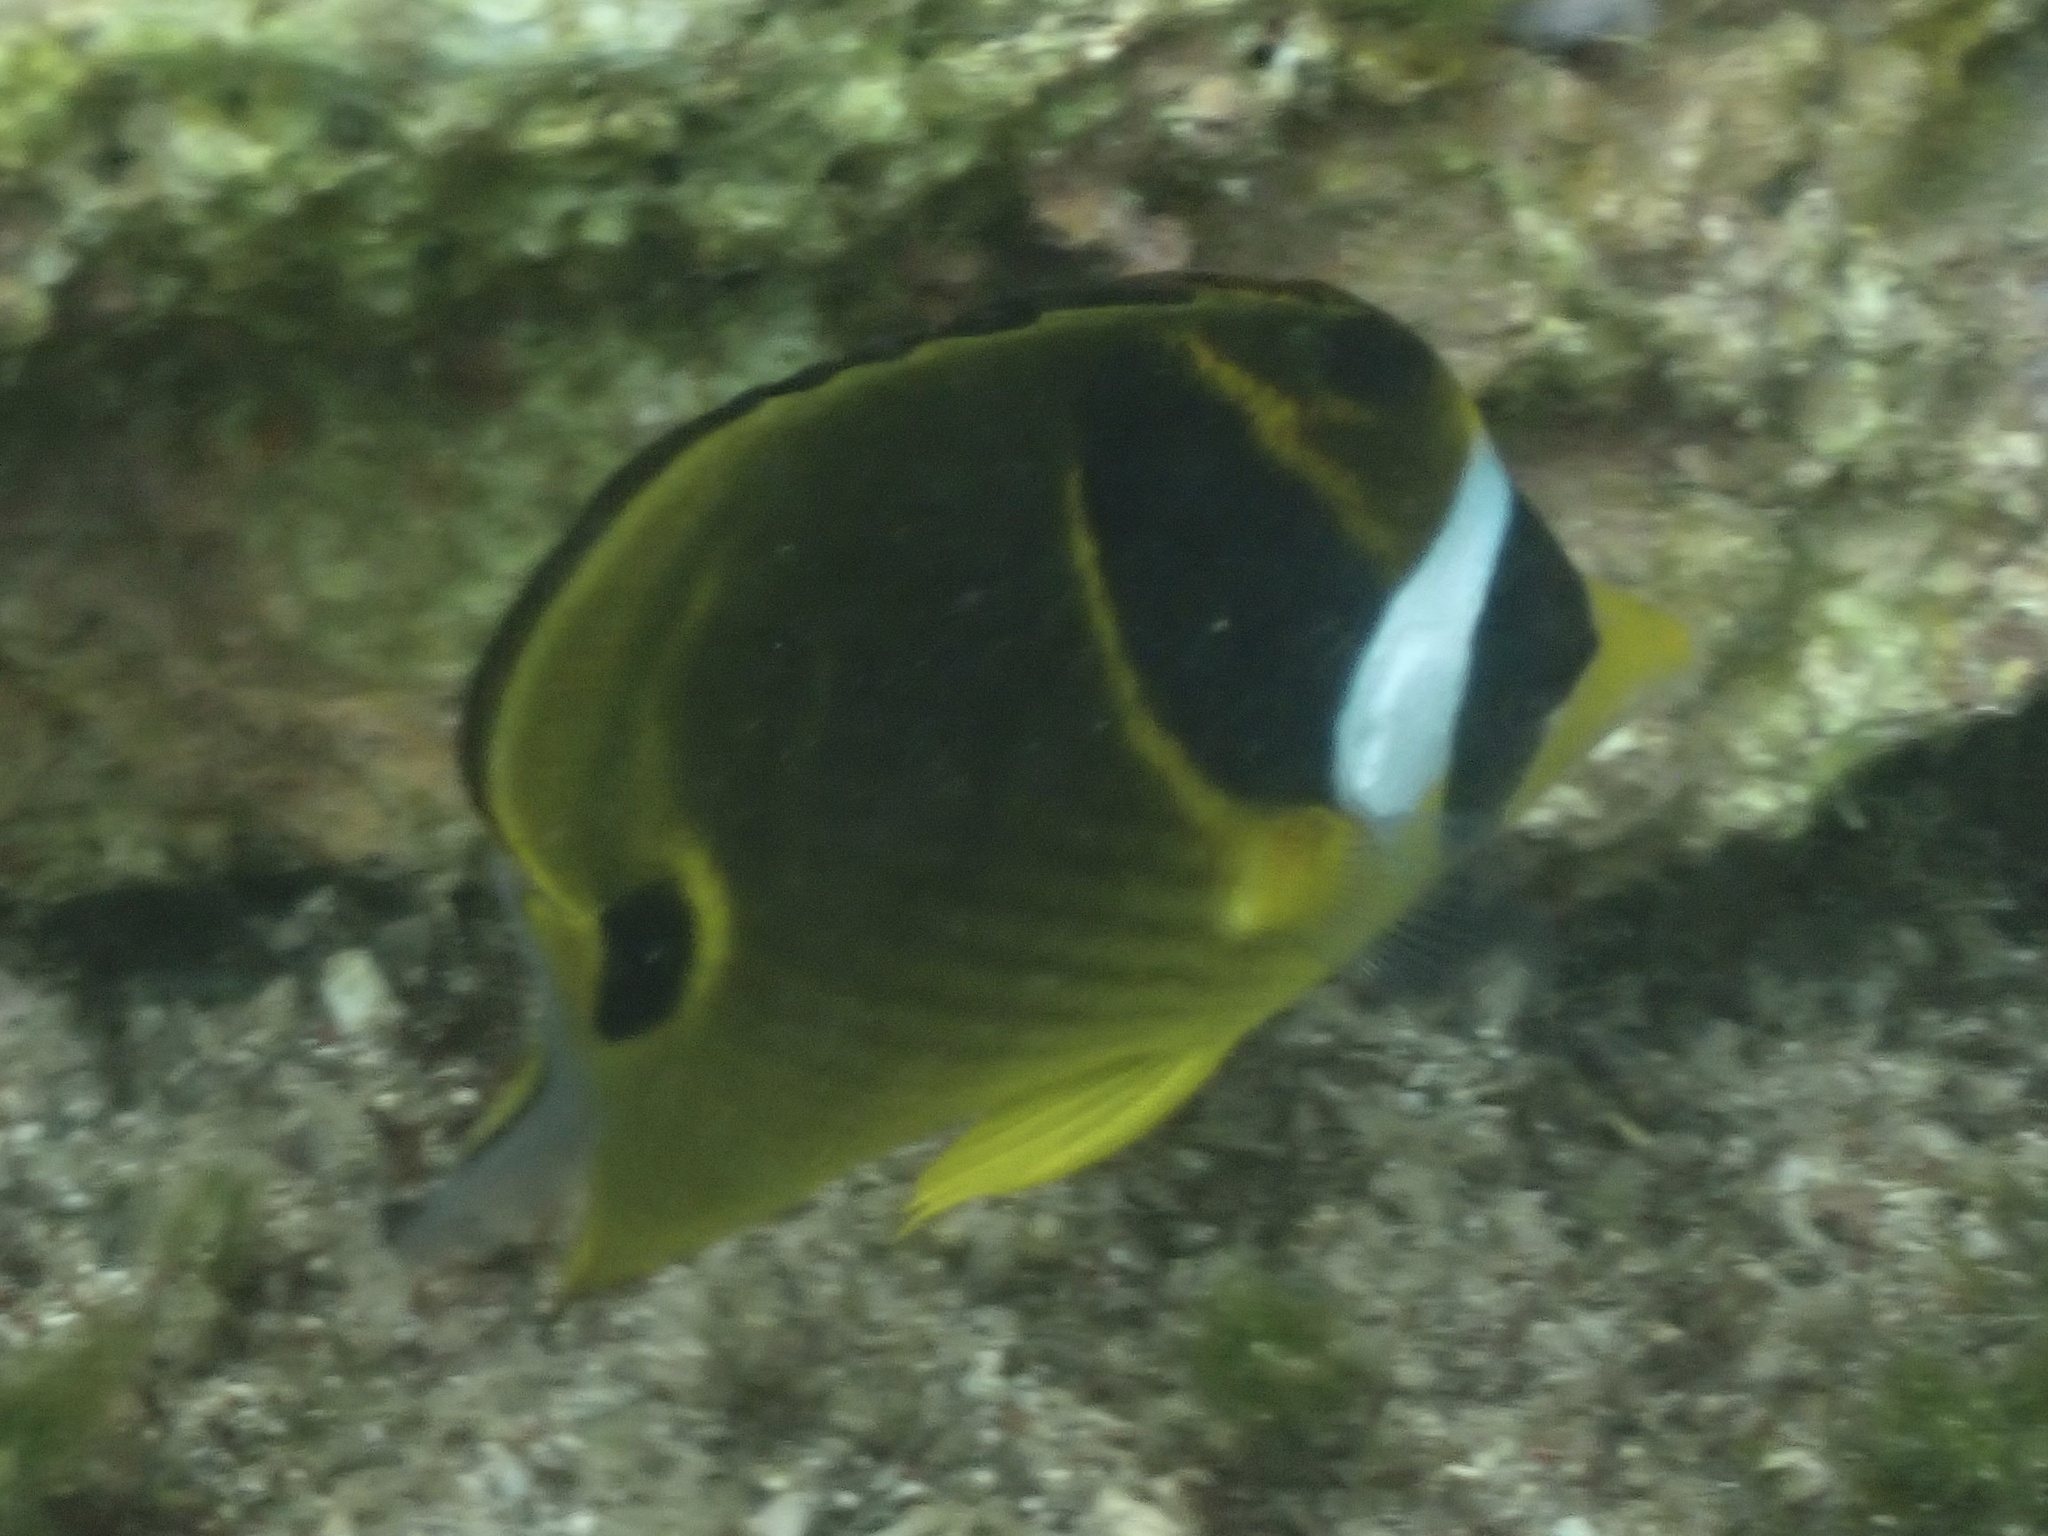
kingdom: Animalia
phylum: Chordata
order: Perciformes
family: Chaetodontidae
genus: Chaetodon
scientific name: Chaetodon lunula
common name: Raccoon butterflyfish
